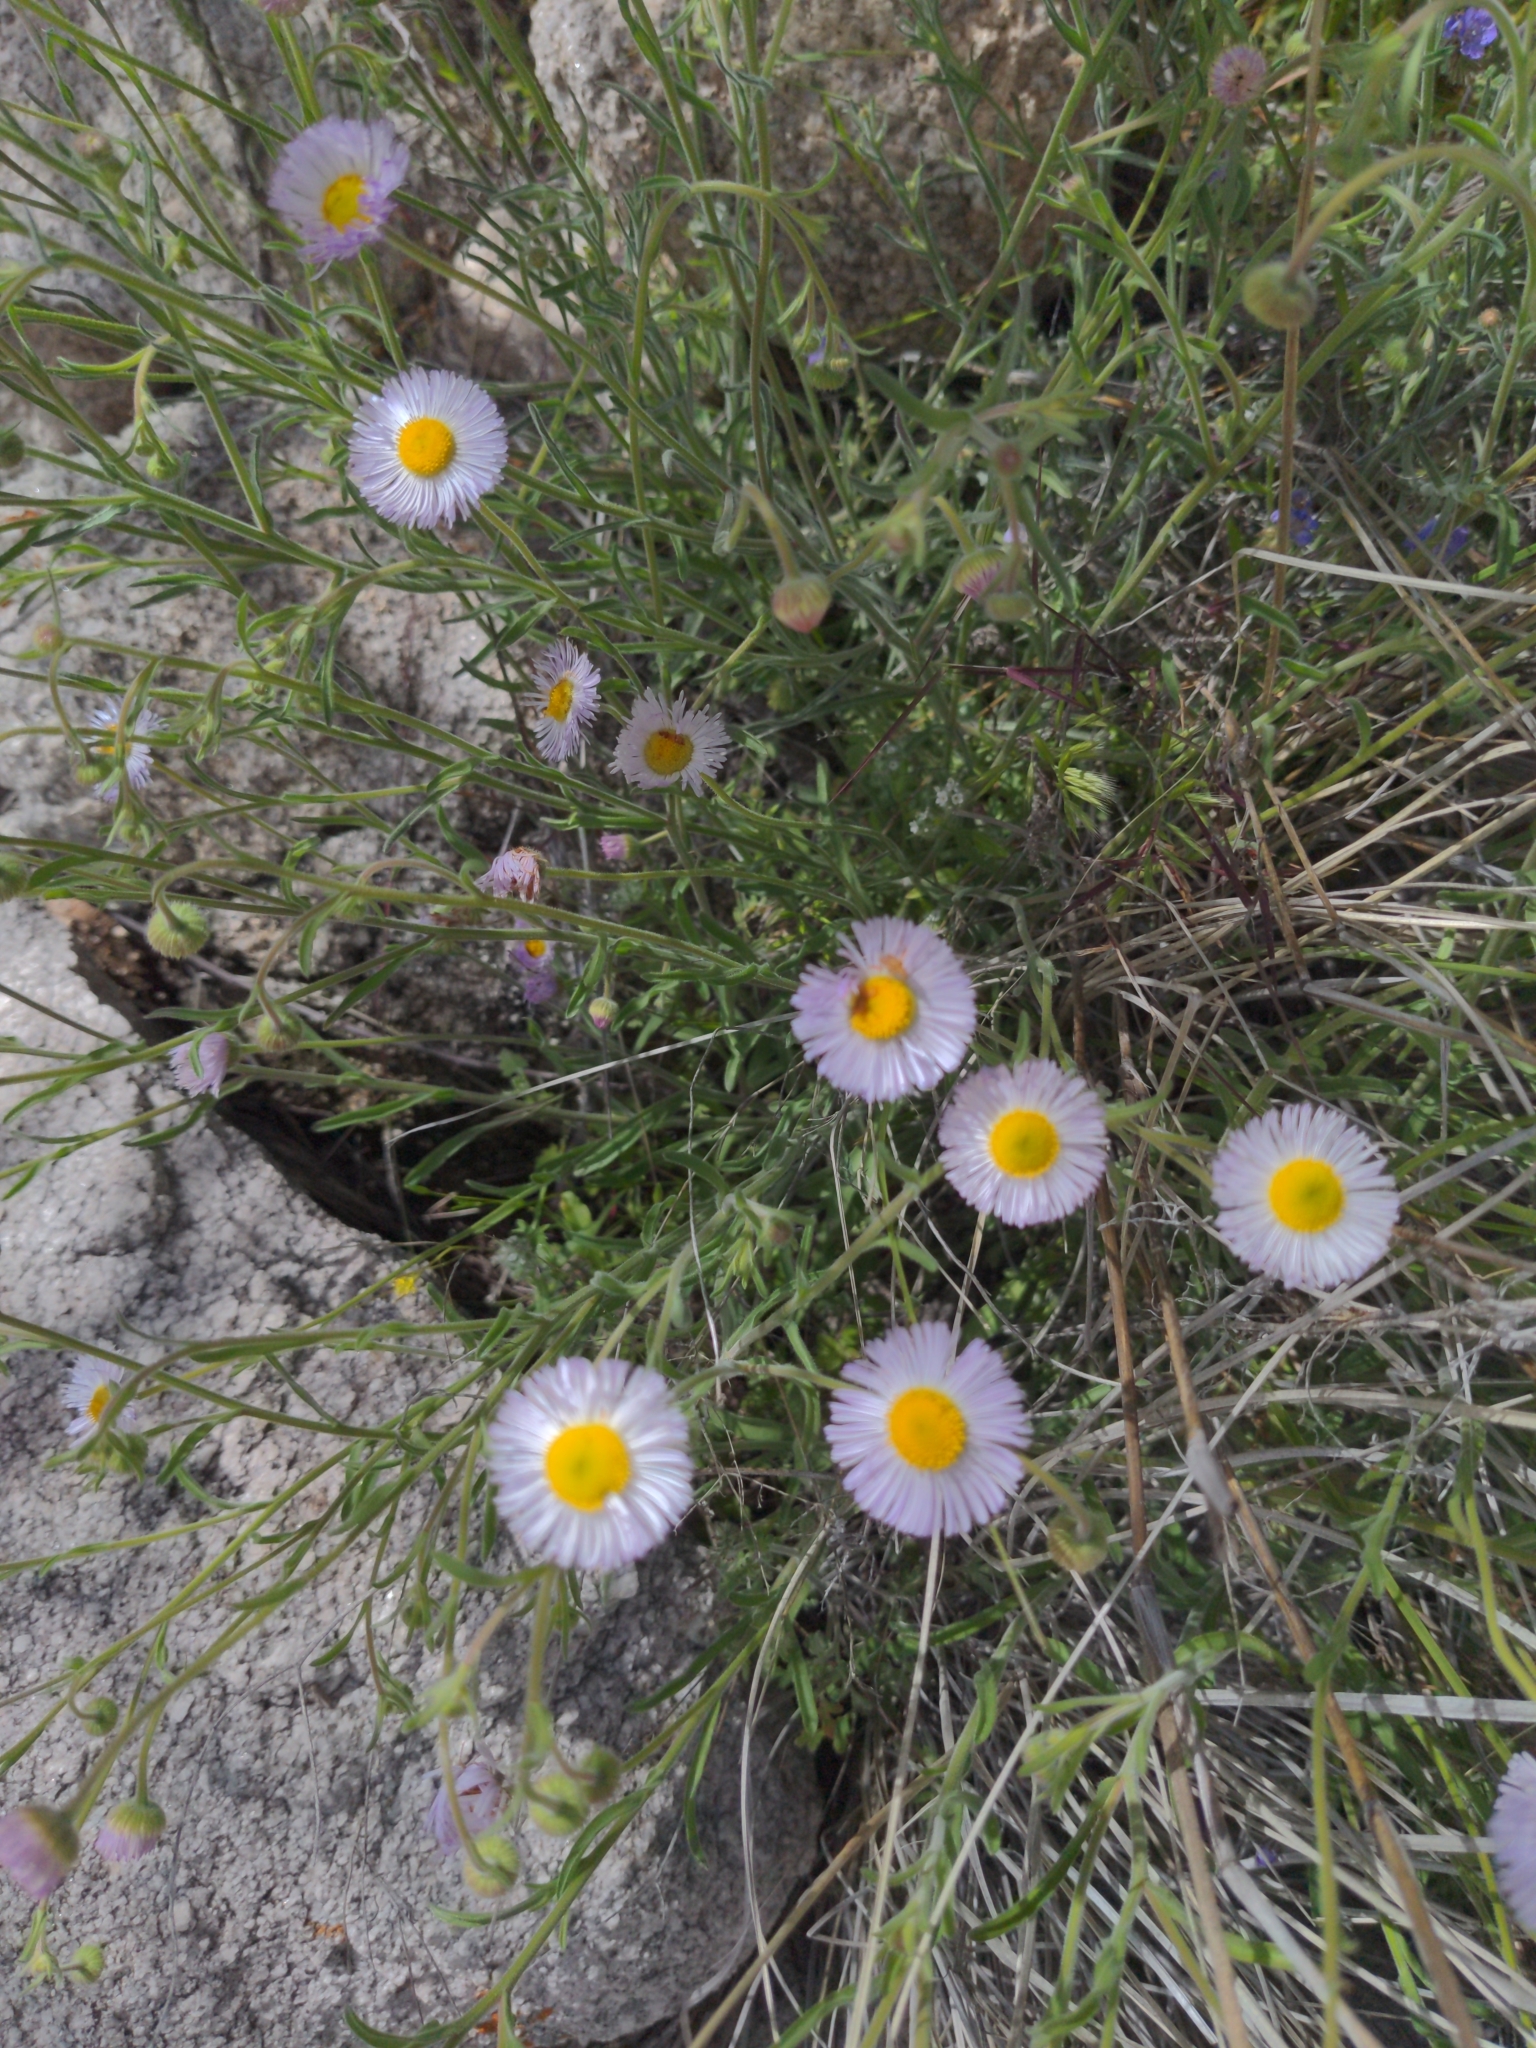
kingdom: Plantae
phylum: Tracheophyta
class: Magnoliopsida
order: Asterales
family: Asteraceae
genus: Erigeron
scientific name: Erigeron divergens
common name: Diffuse fleabane
